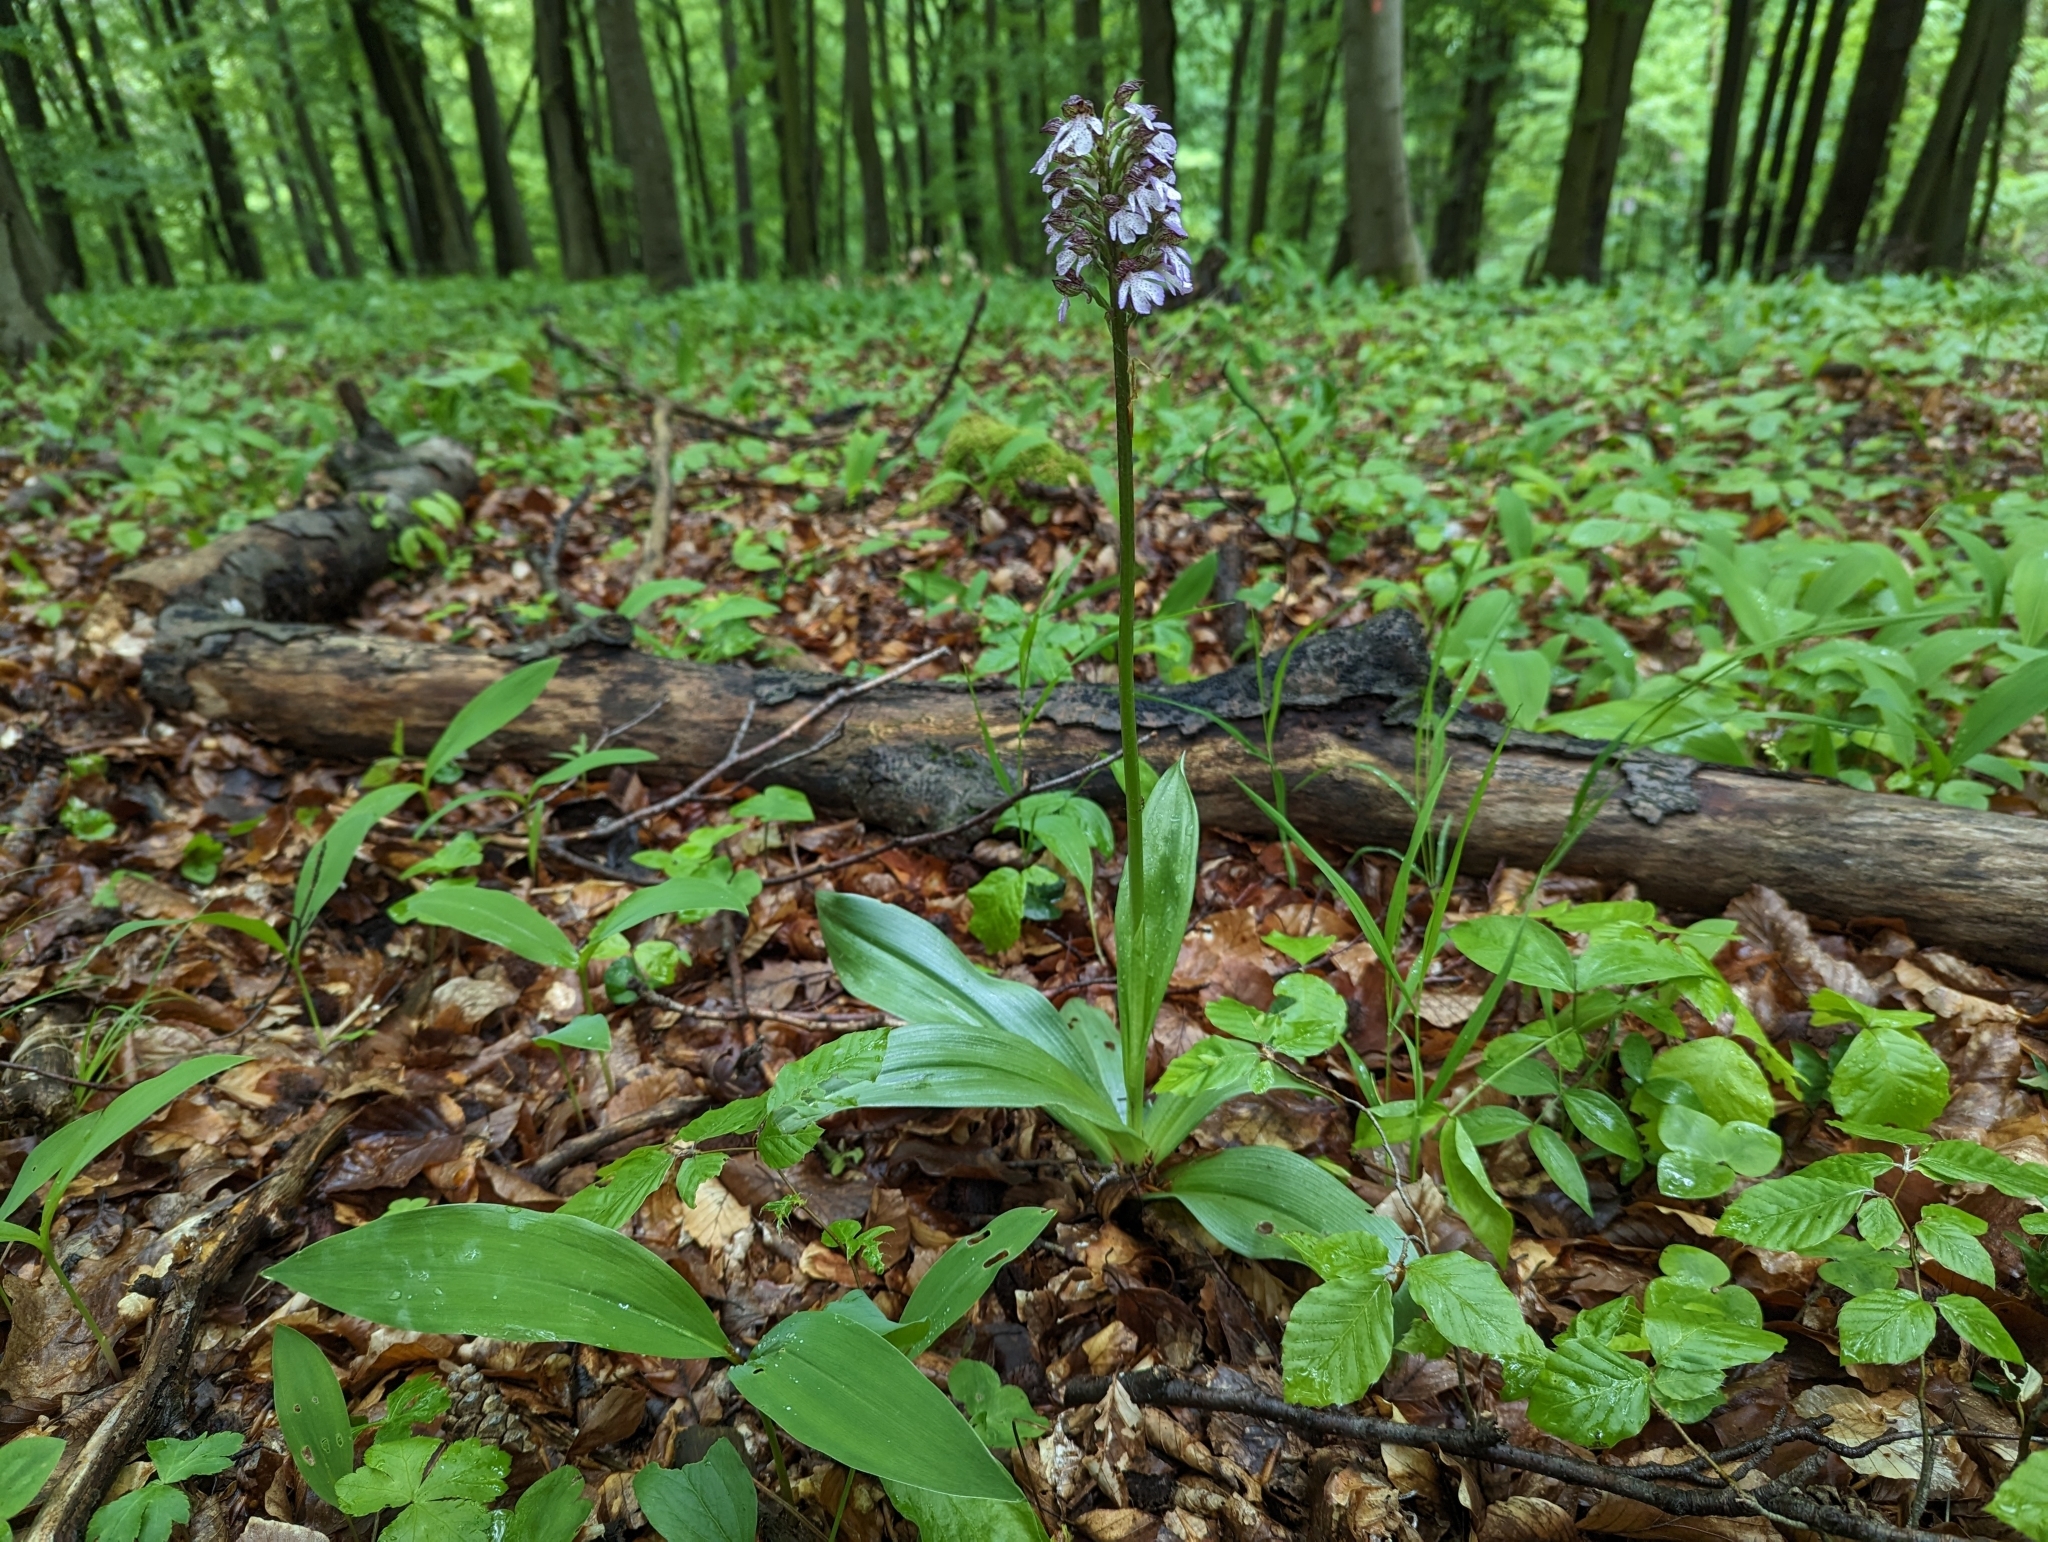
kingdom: Plantae
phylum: Tracheophyta
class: Liliopsida
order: Asparagales
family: Orchidaceae
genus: Orchis
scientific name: Orchis purpurea
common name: Lady orchid
